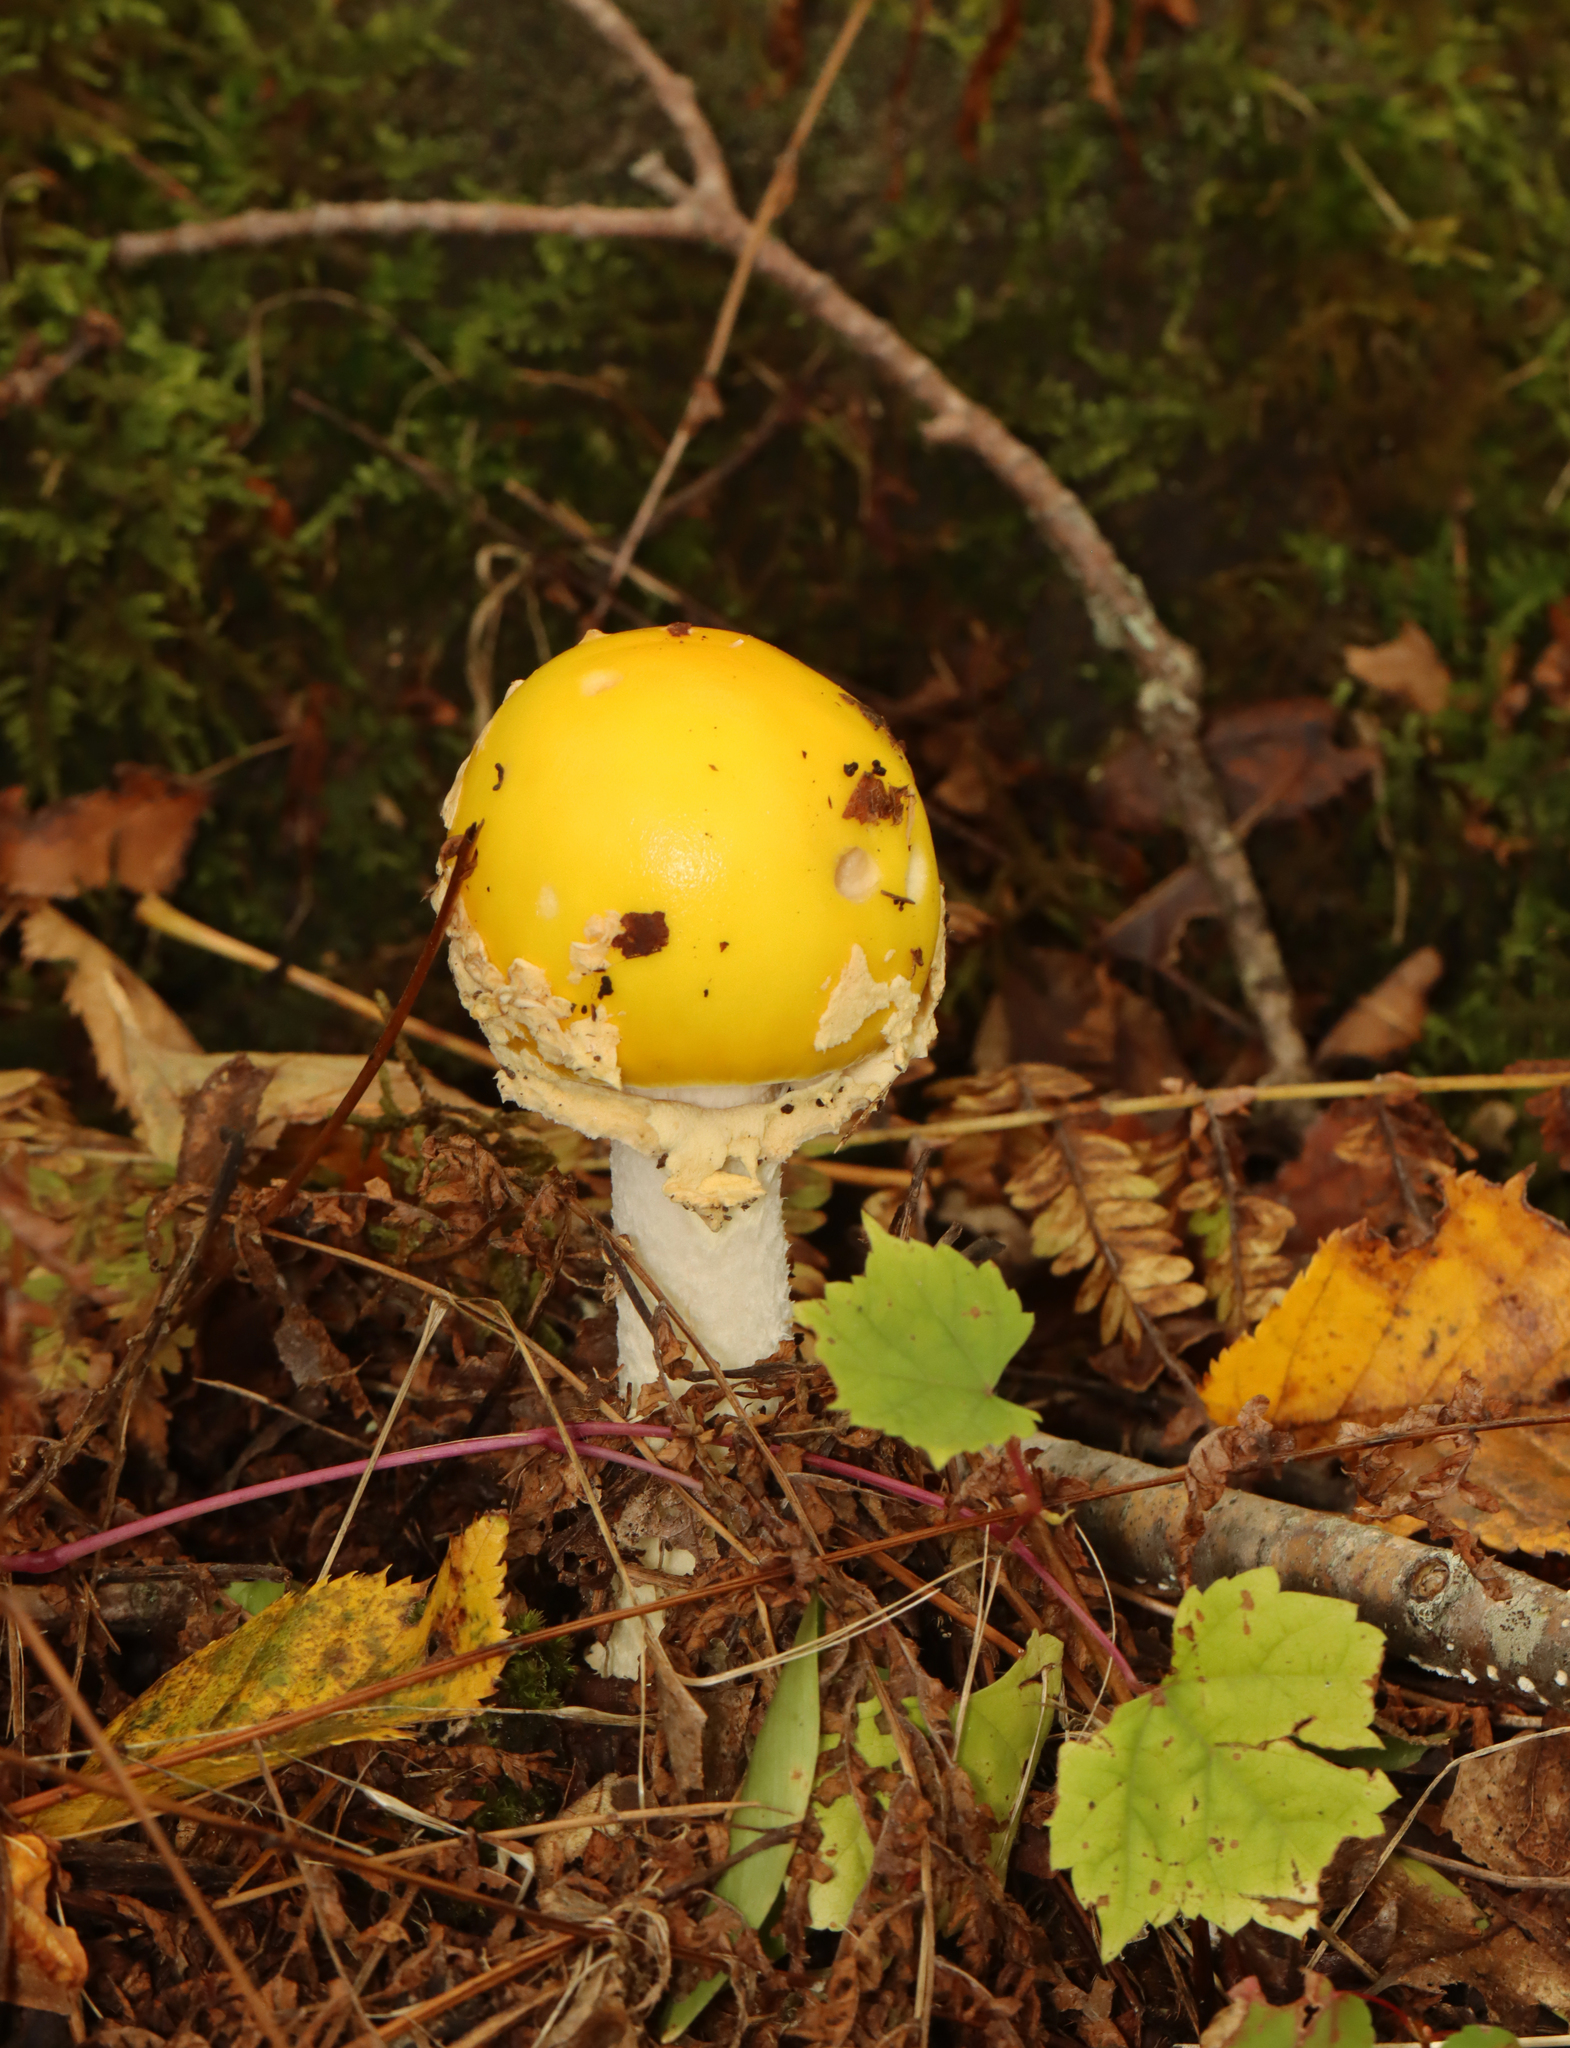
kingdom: Fungi
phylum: Basidiomycota
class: Agaricomycetes
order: Agaricales
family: Amanitaceae
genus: Amanita
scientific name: Amanita muscaria
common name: Fly agaric
